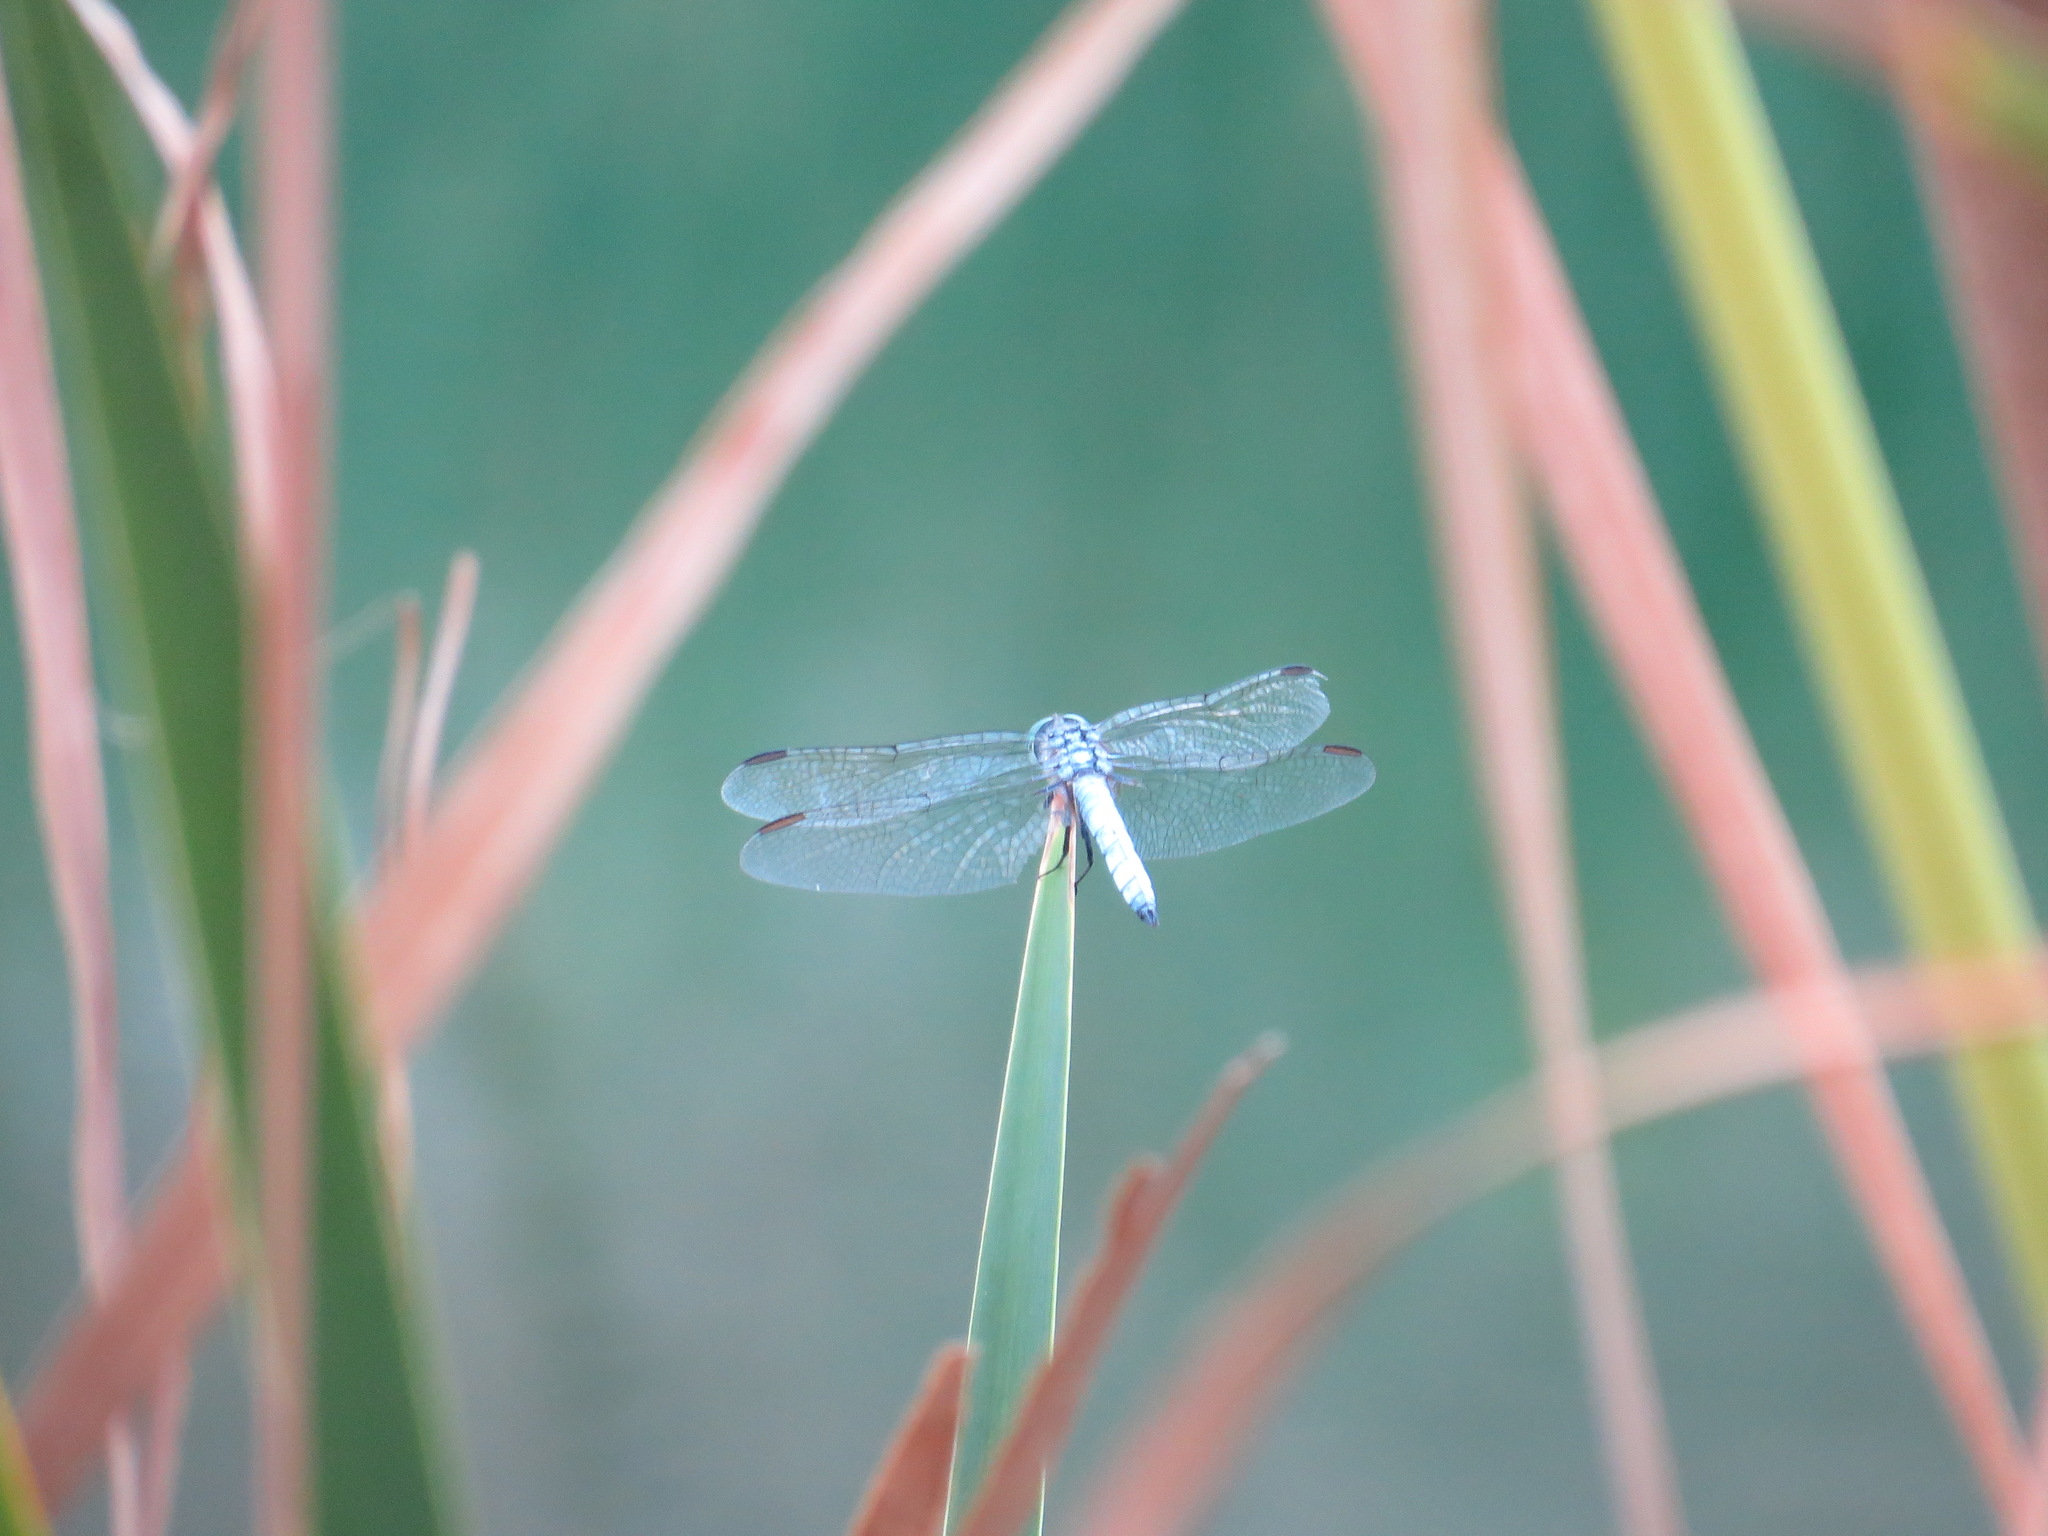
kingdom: Animalia
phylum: Arthropoda
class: Insecta
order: Odonata
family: Libellulidae
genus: Pachydiplax
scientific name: Pachydiplax longipennis
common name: Blue dasher
